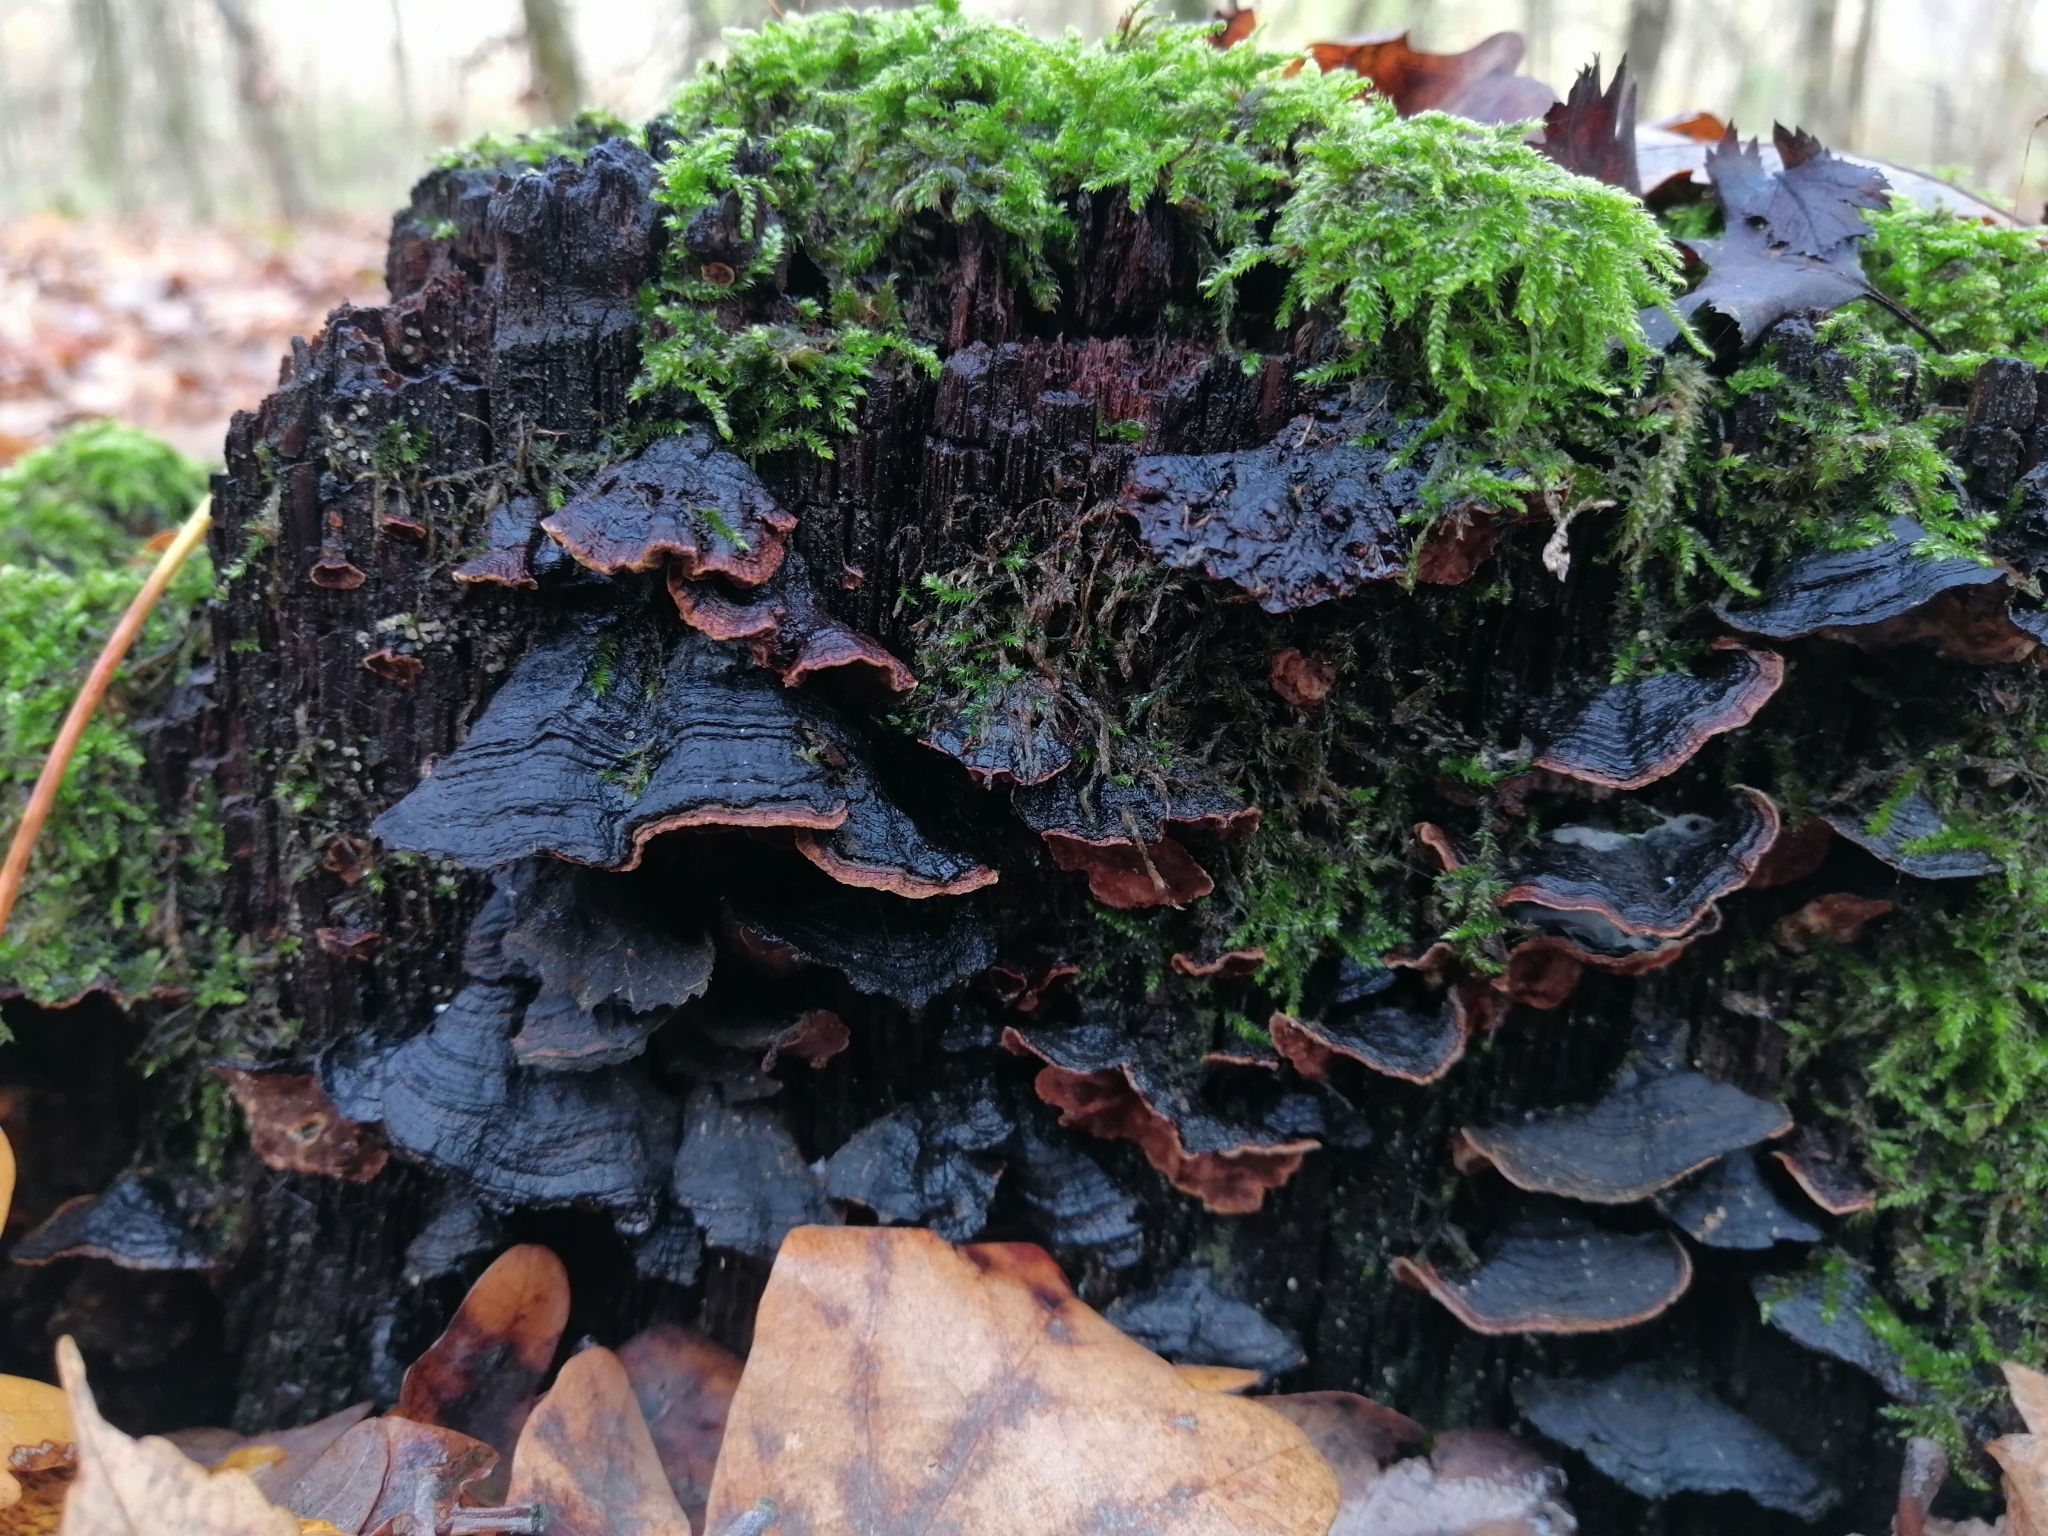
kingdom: Fungi
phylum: Basidiomycota
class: Agaricomycetes
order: Hymenochaetales
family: Hymenochaetaceae
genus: Hymenochaete
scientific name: Hymenochaete rubiginosa
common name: Oak curtain crust
